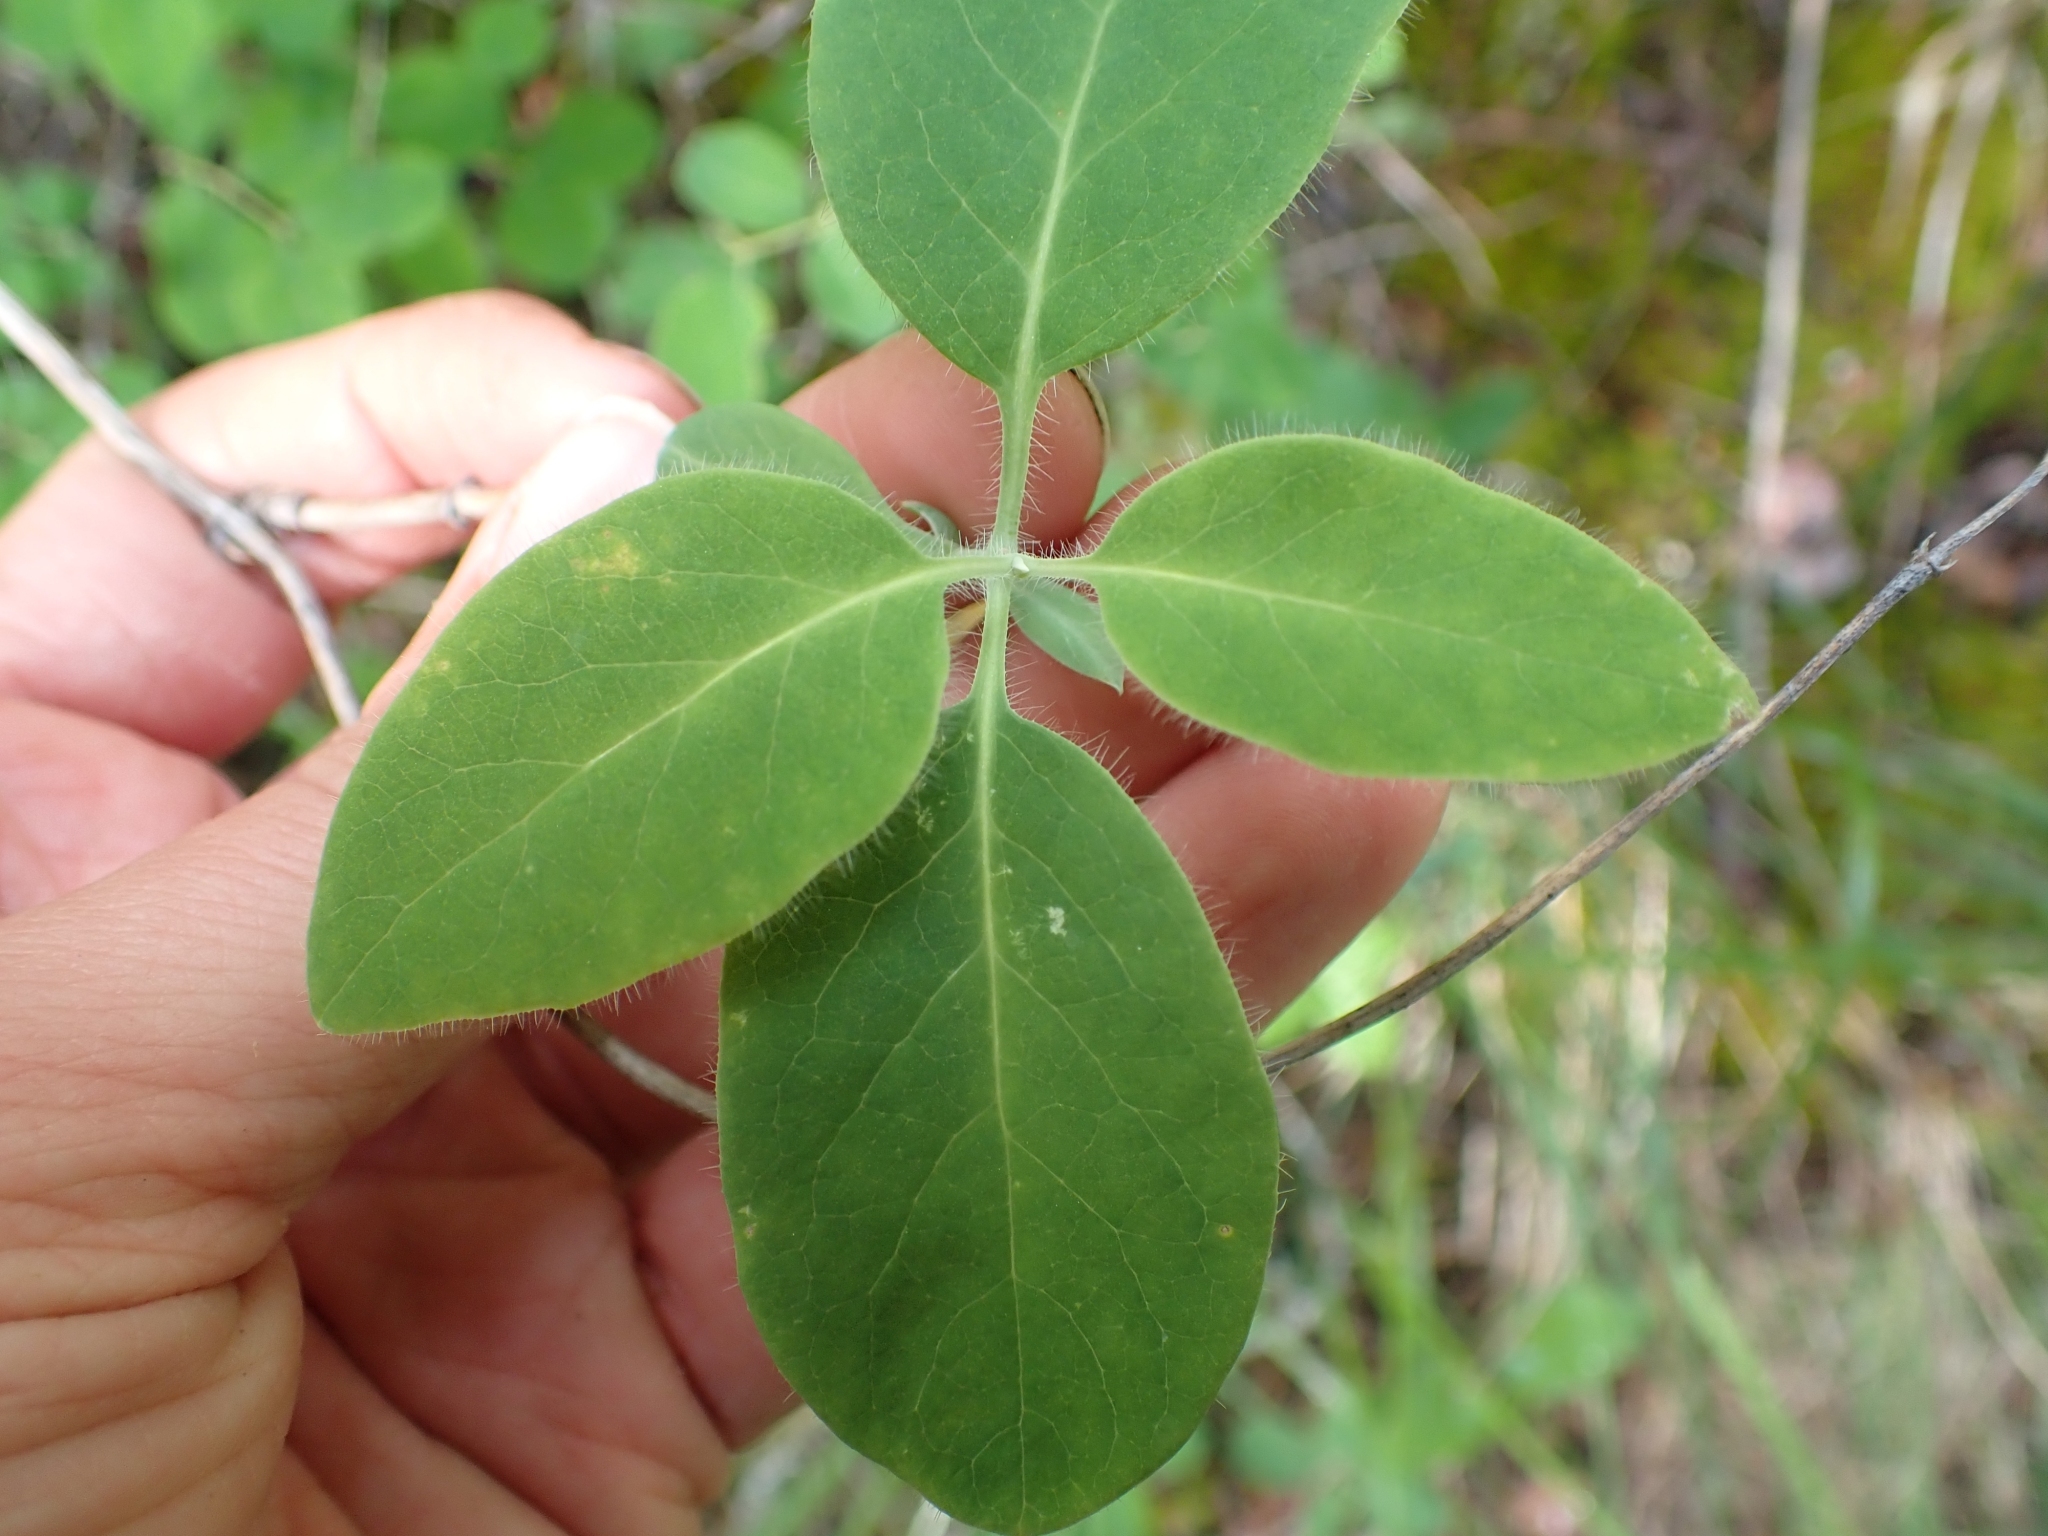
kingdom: Plantae
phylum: Tracheophyta
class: Magnoliopsida
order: Dipsacales
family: Caprifoliaceae
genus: Lonicera
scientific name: Lonicera ciliosa
